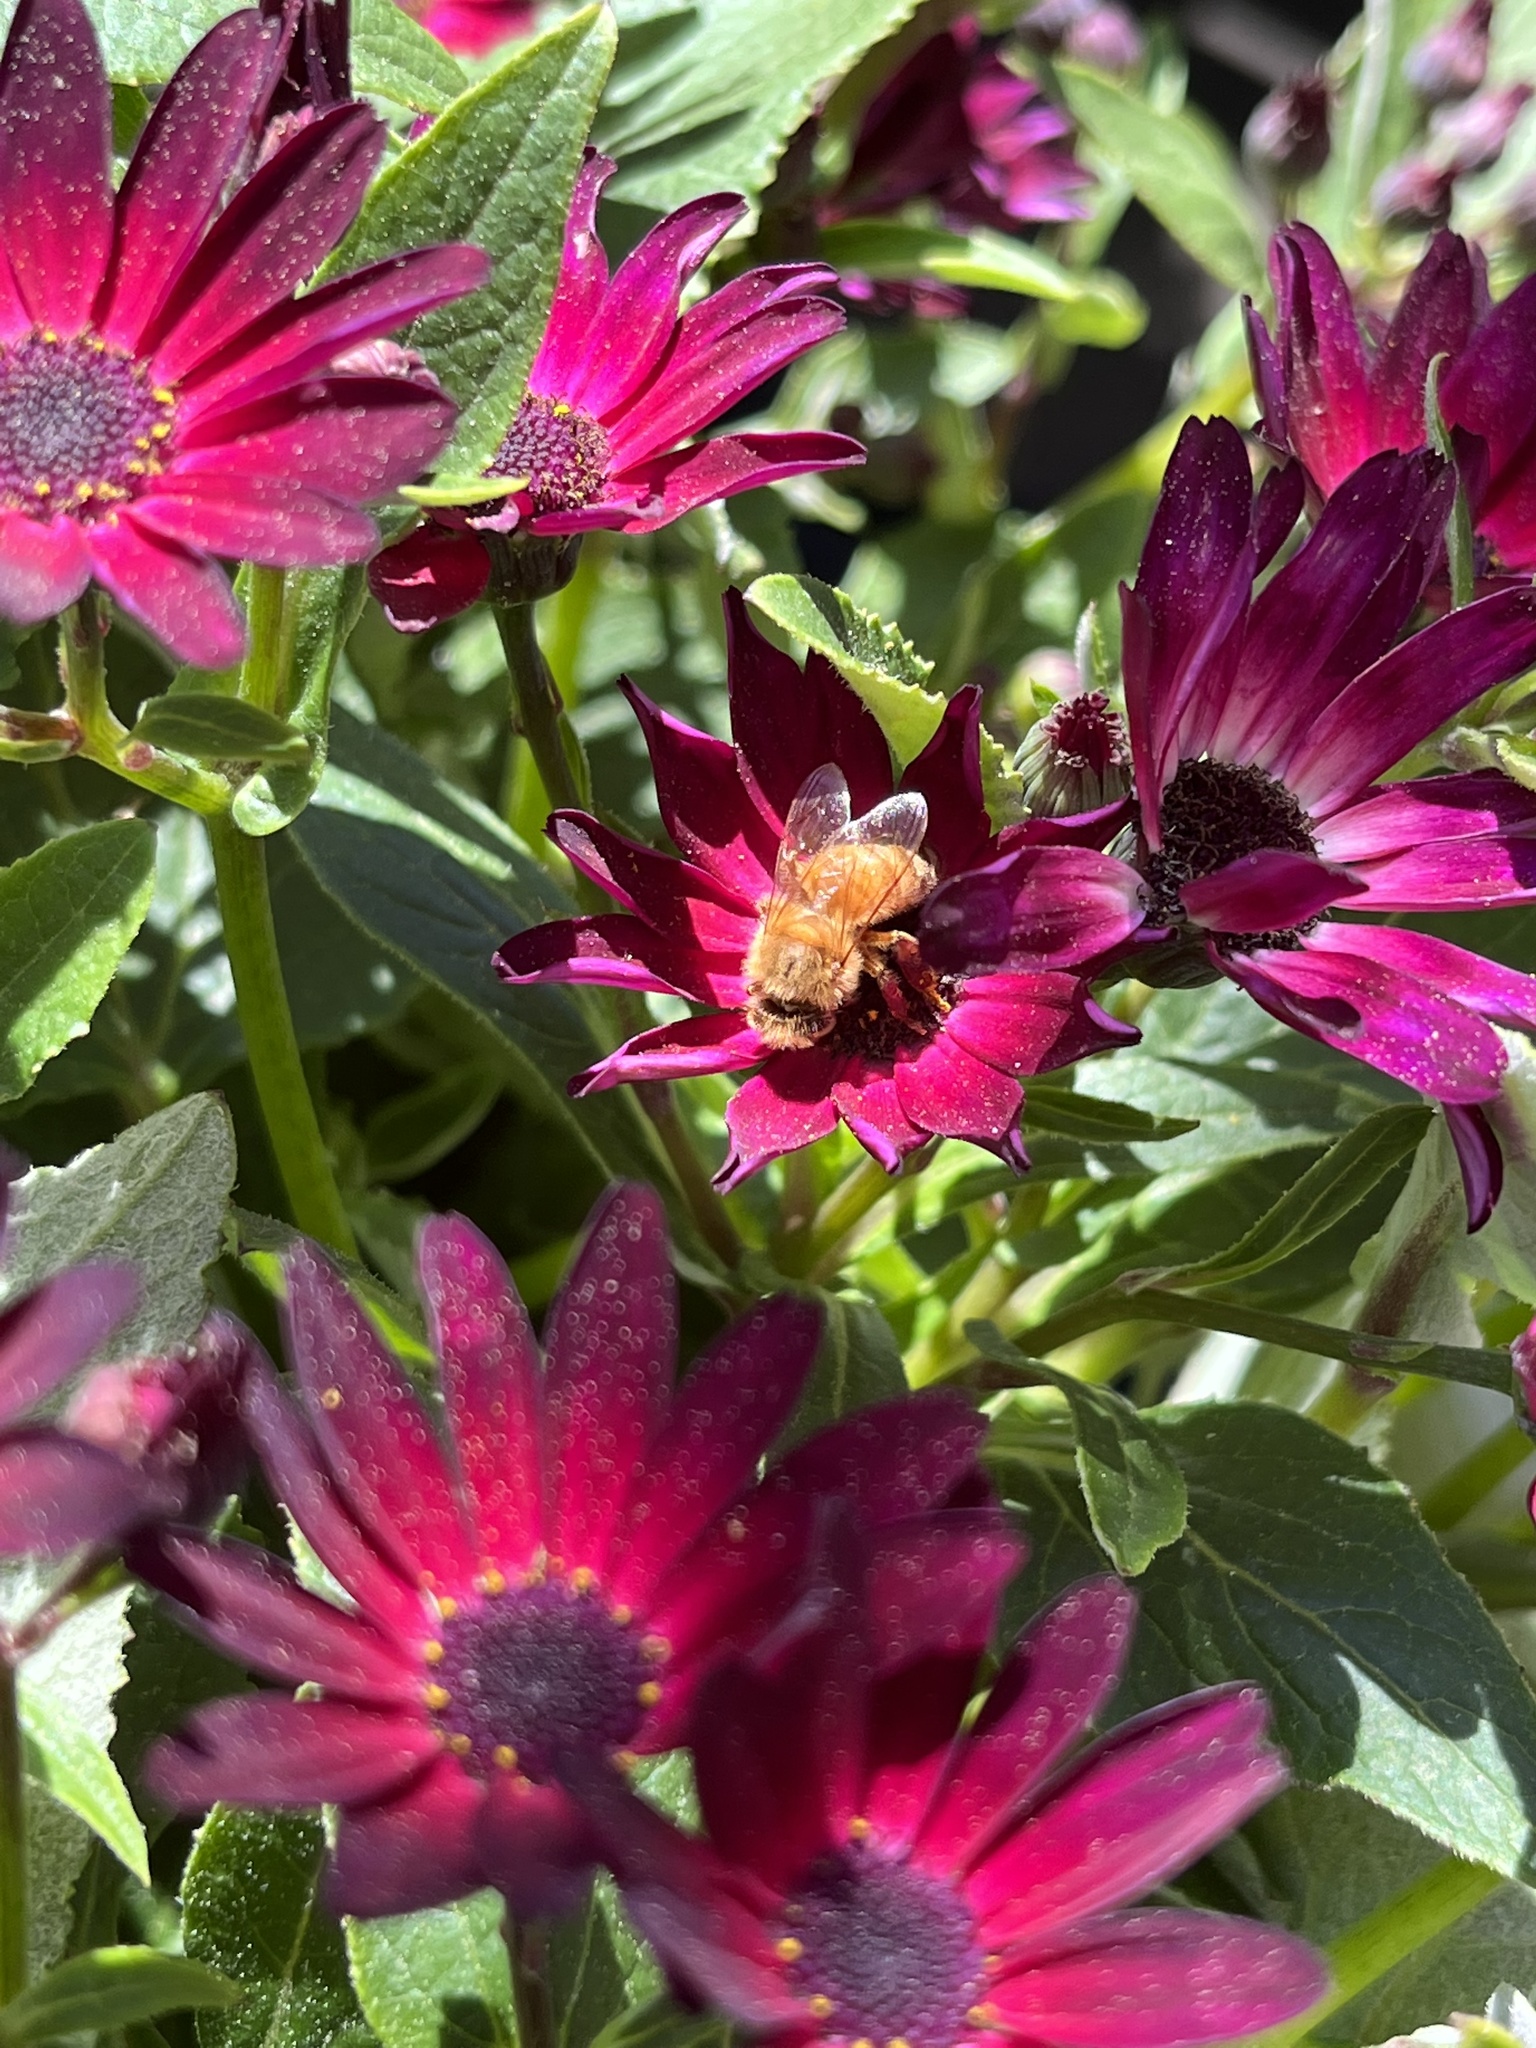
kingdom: Animalia
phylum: Arthropoda
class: Insecta
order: Hymenoptera
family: Apidae
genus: Apis
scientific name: Apis mellifera
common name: Honey bee
